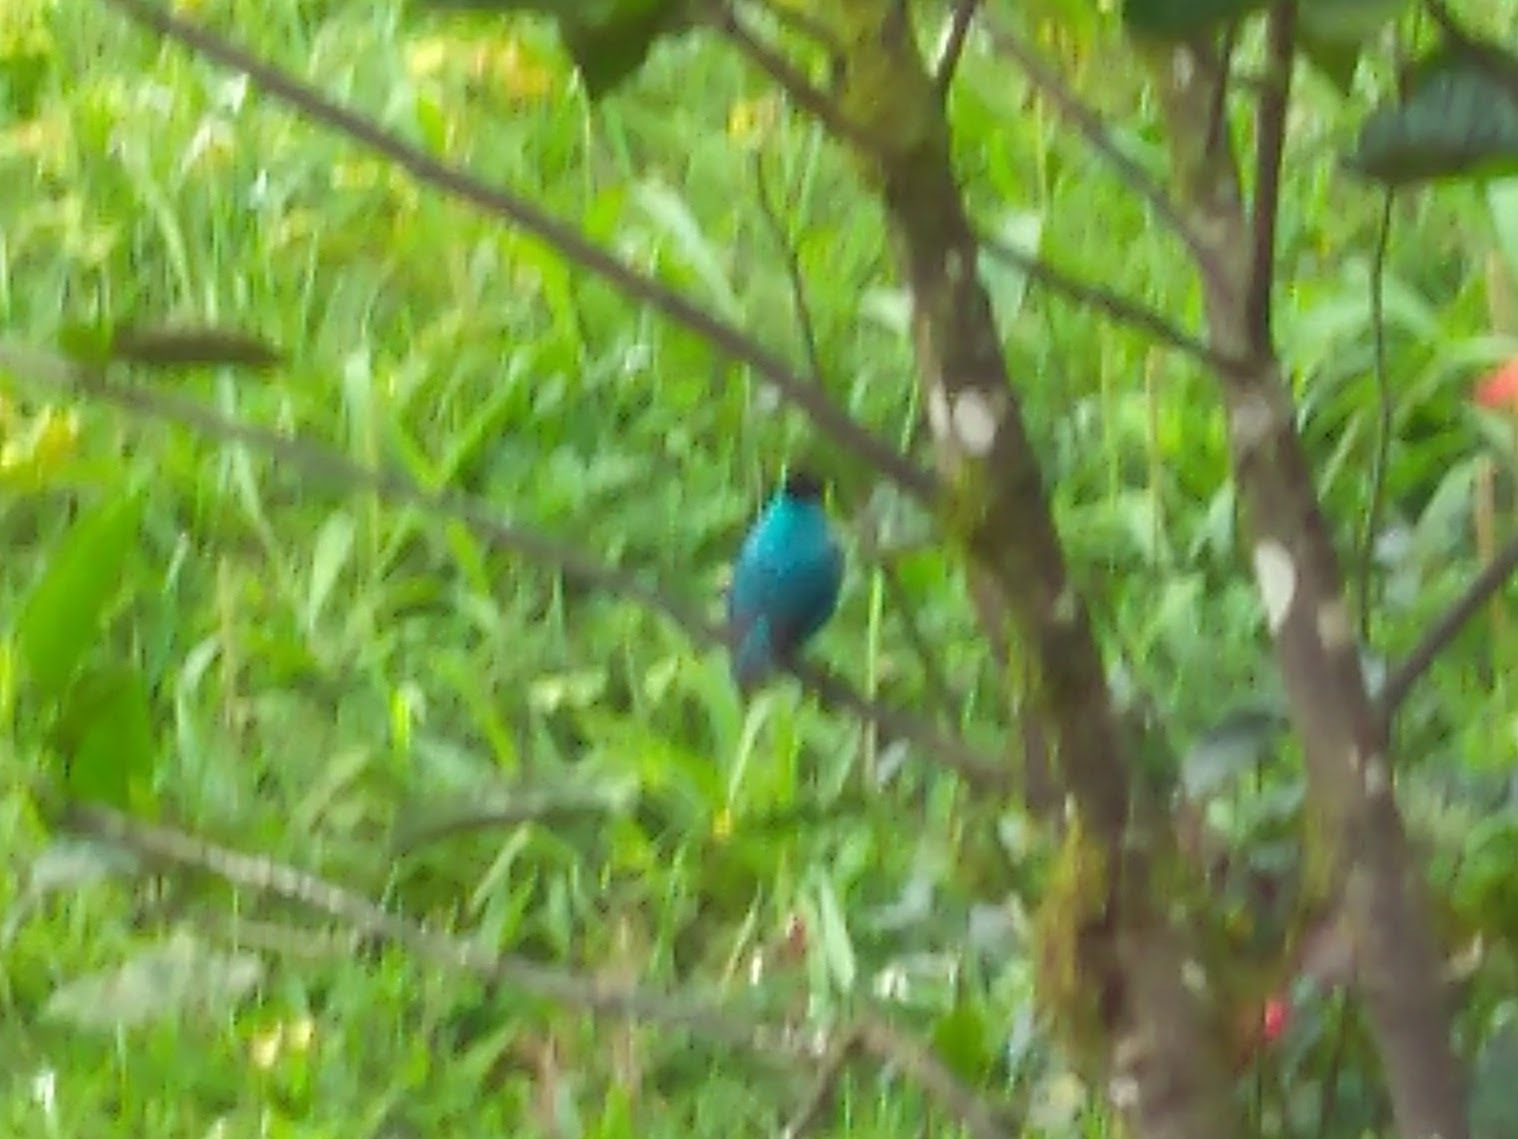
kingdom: Animalia
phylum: Chordata
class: Aves
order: Passeriformes
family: Thraupidae
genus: Chlorophanes
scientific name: Chlorophanes spiza
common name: Green honeycreeper
